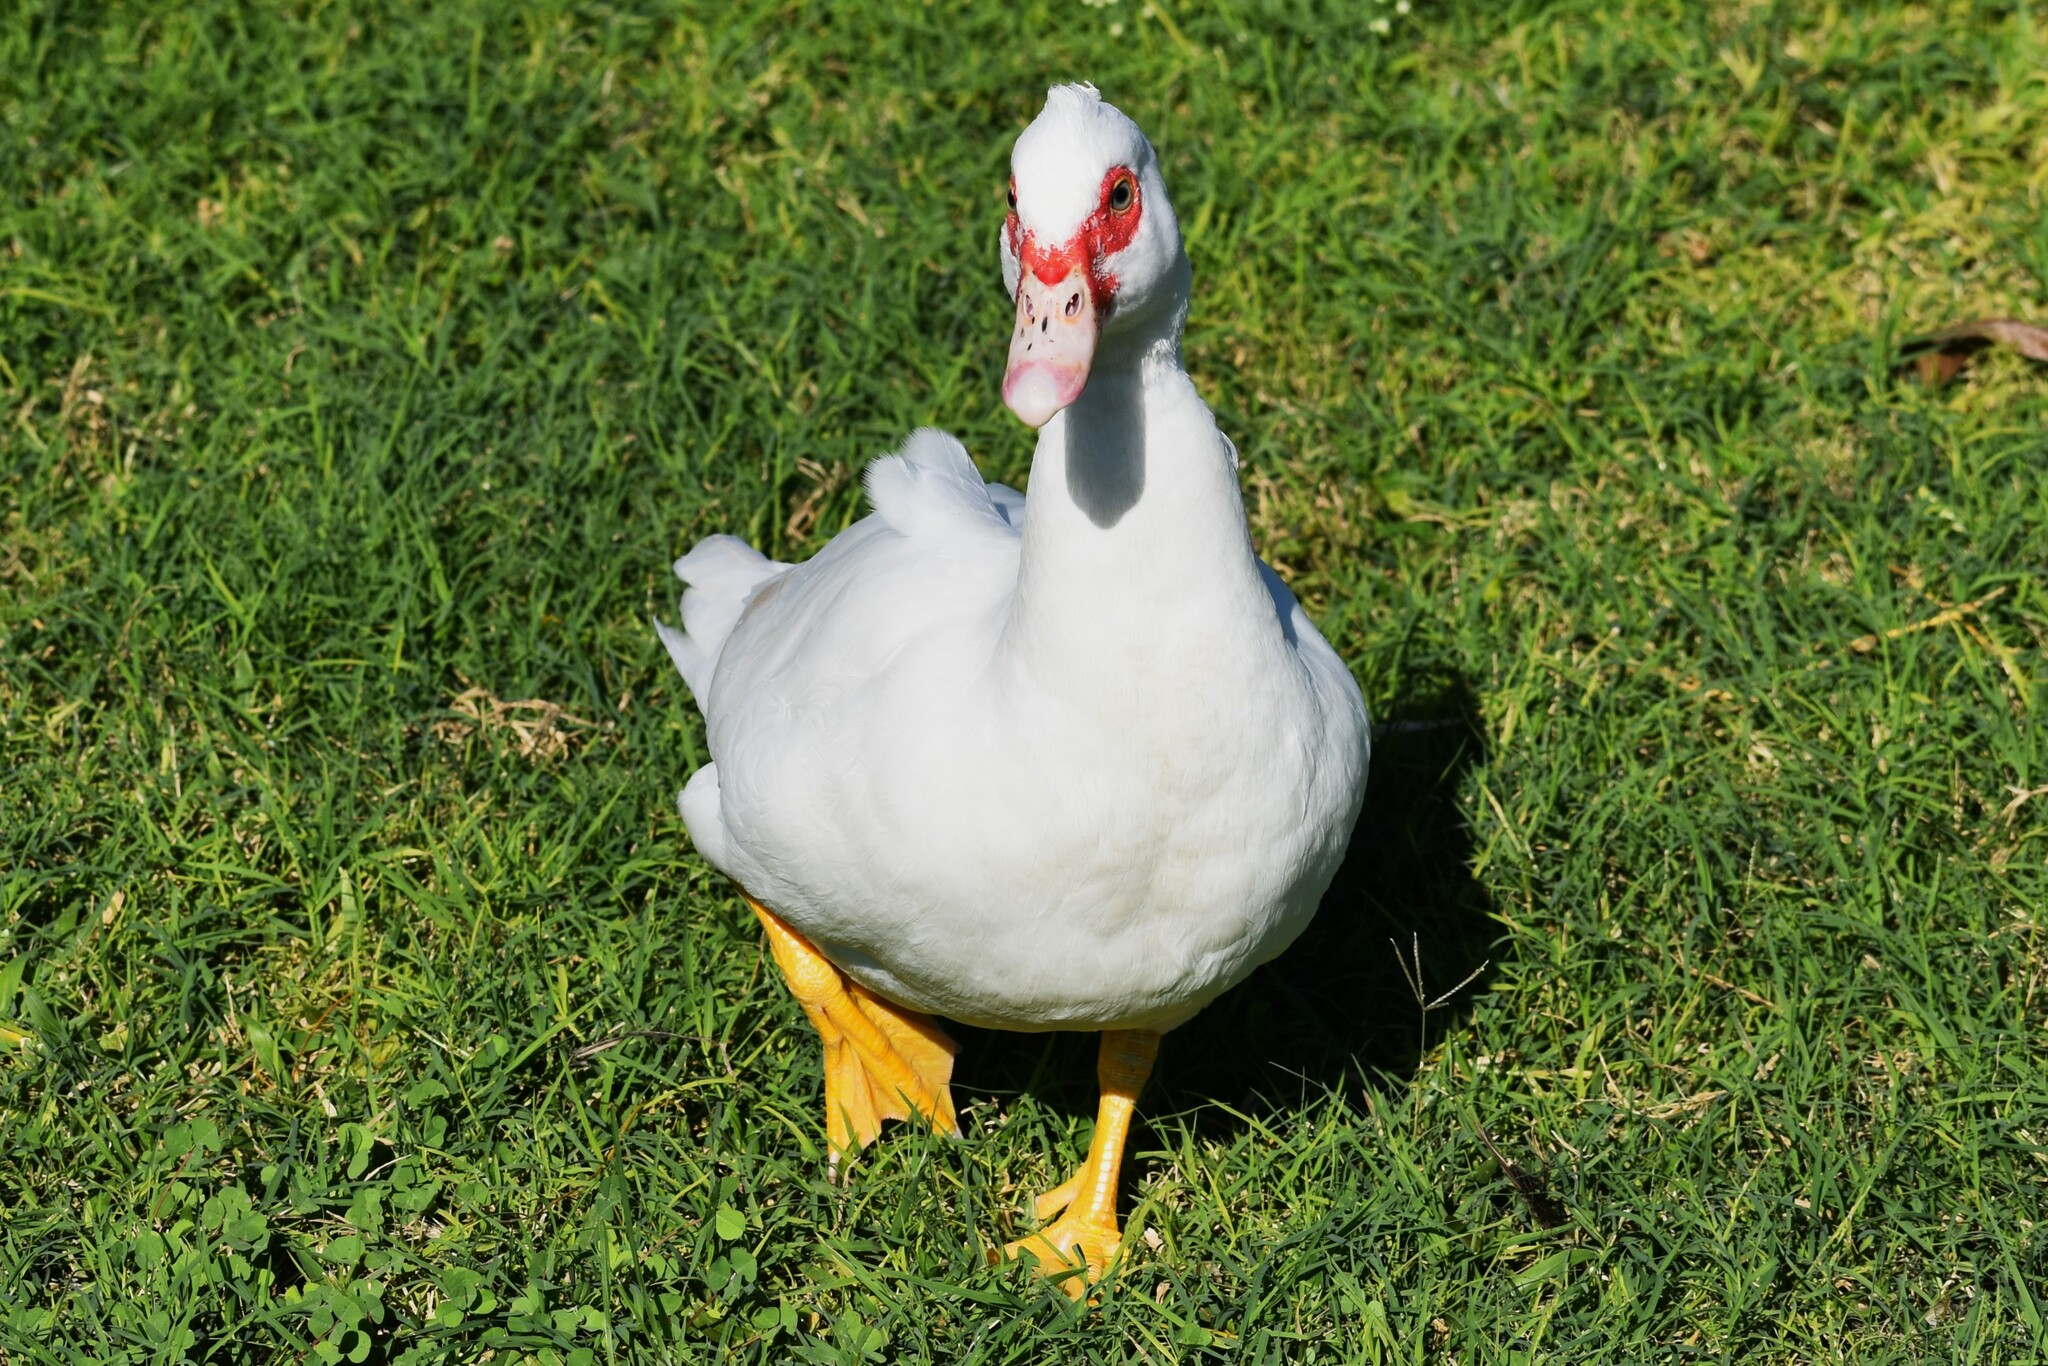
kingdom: Animalia
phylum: Chordata
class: Aves
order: Anseriformes
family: Anatidae
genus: Cairina
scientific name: Cairina moschata
